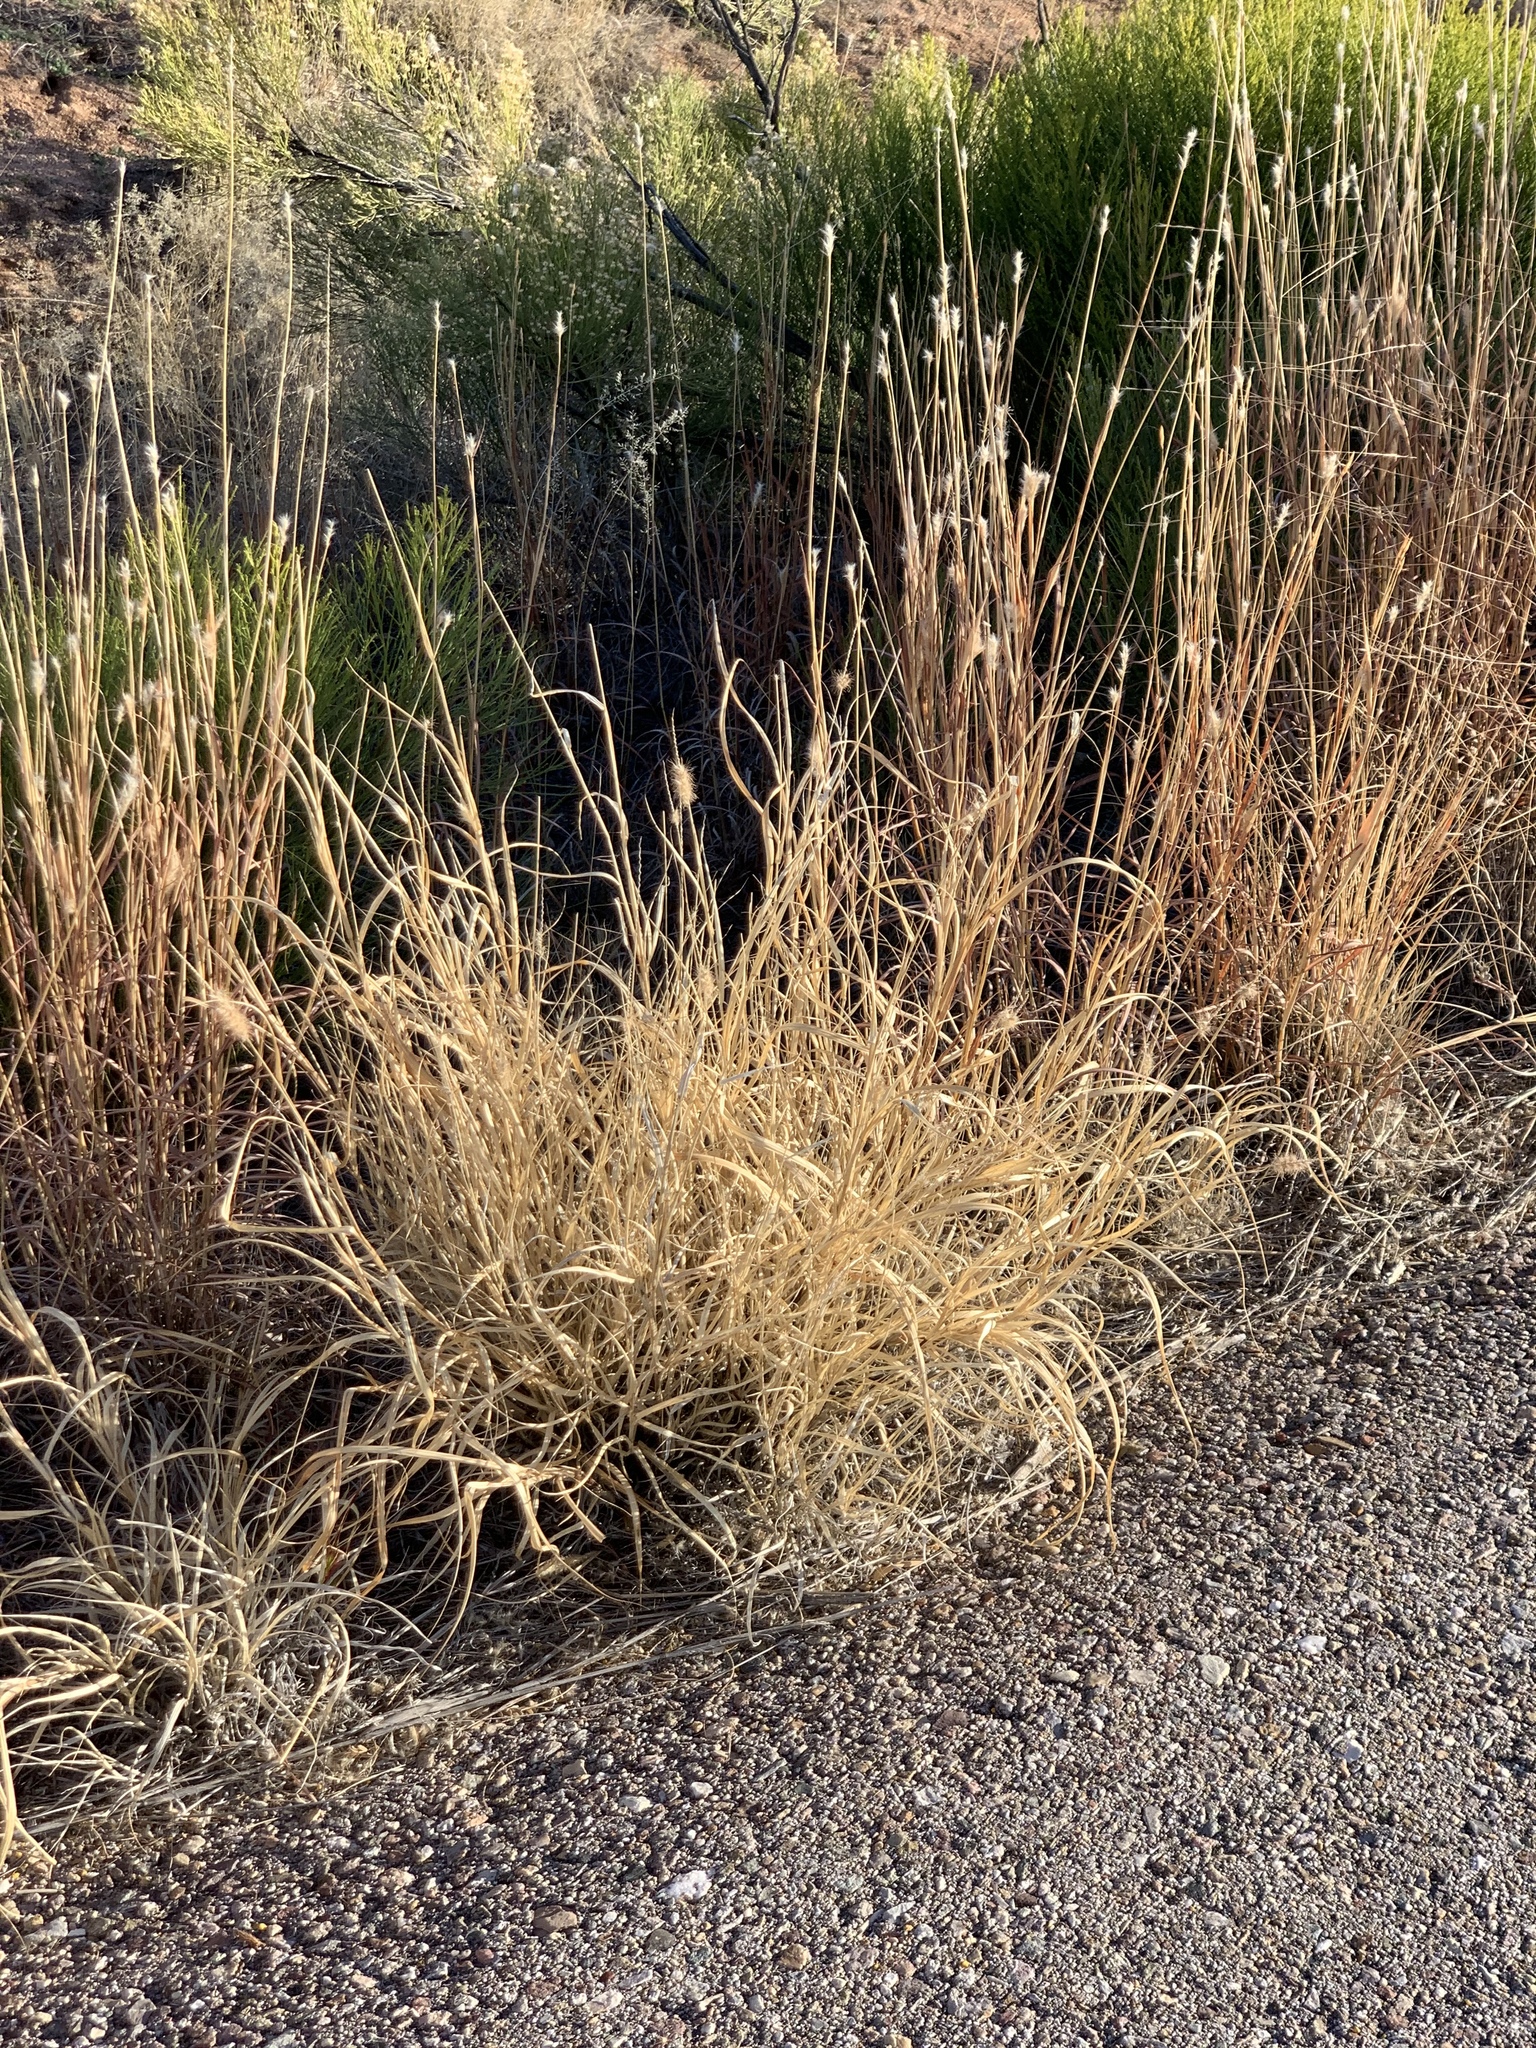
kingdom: Plantae
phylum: Tracheophyta
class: Liliopsida
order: Poales
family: Poaceae
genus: Cenchrus
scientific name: Cenchrus ciliaris
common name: Buffelgrass
